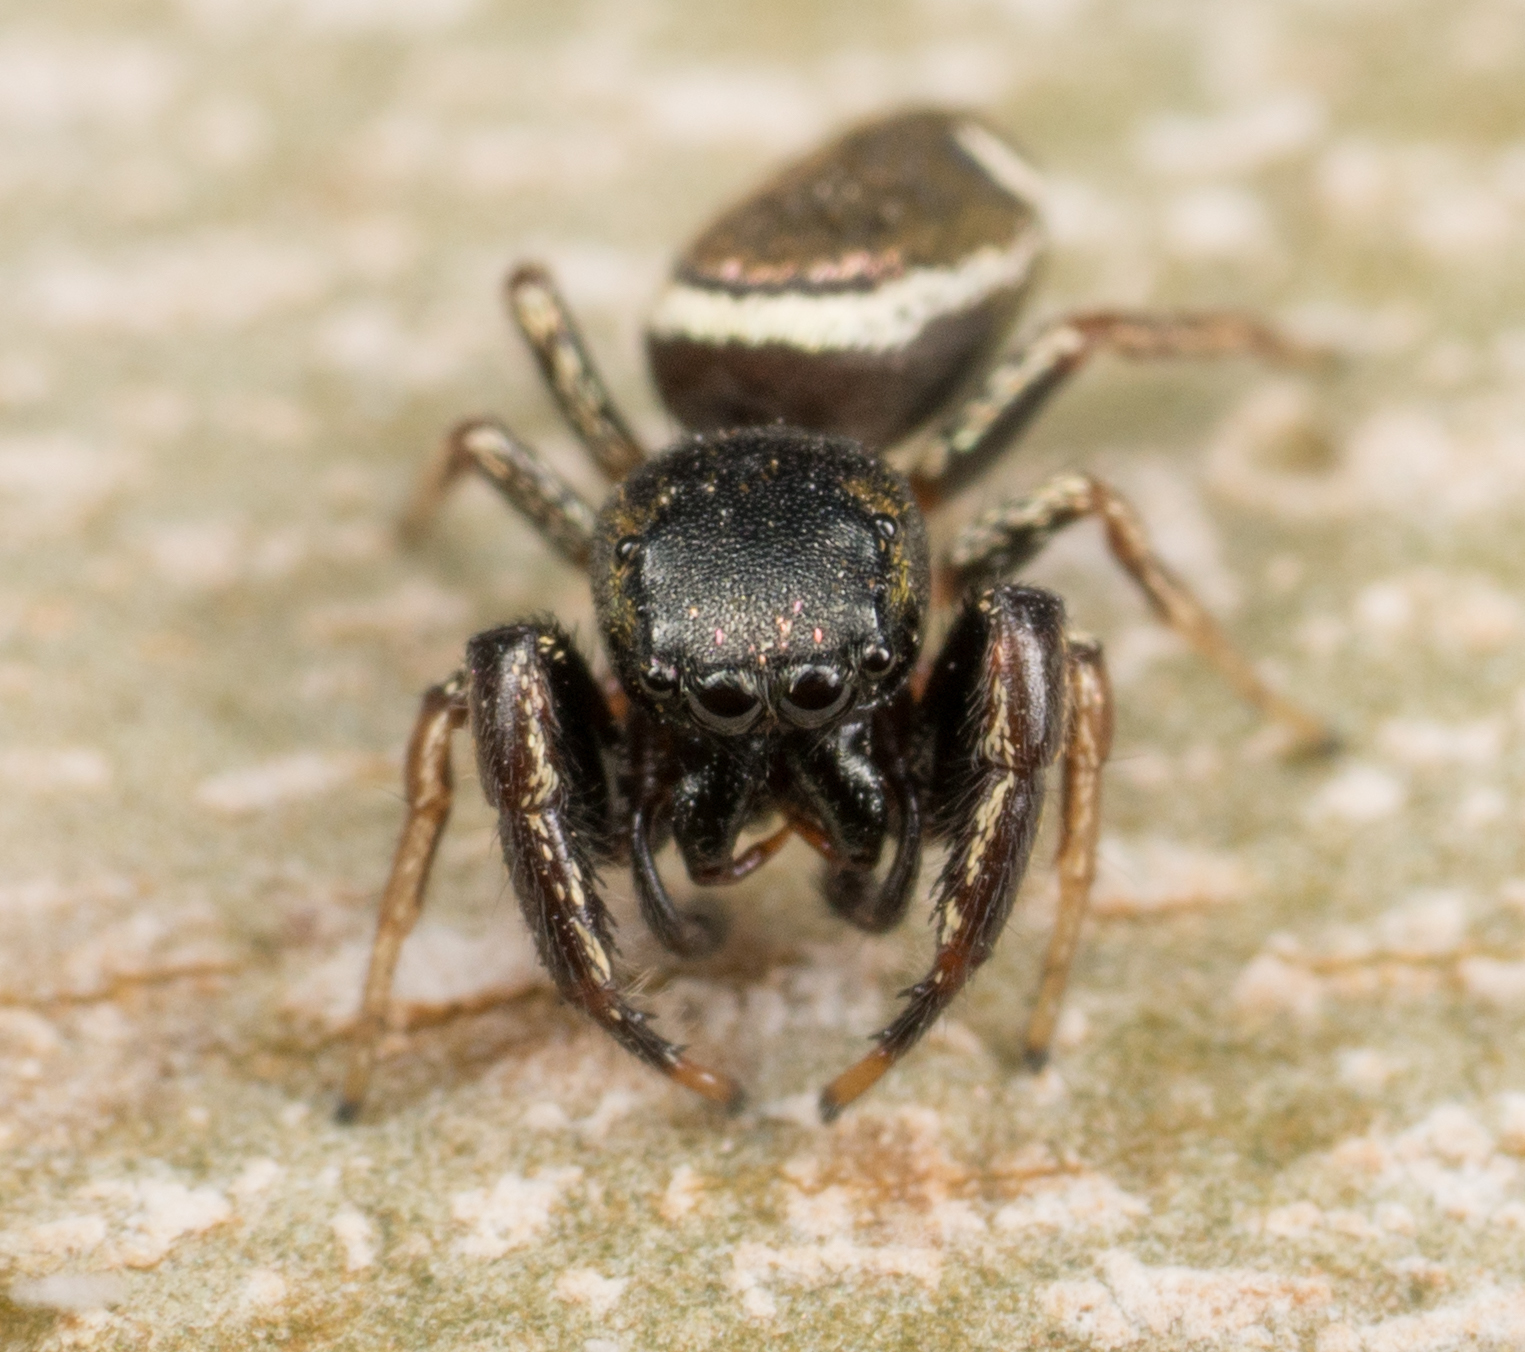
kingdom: Animalia
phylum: Arthropoda
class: Arachnida
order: Araneae
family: Salticidae
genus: Sassacus
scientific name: Sassacus vitis
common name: Jumping spiders
